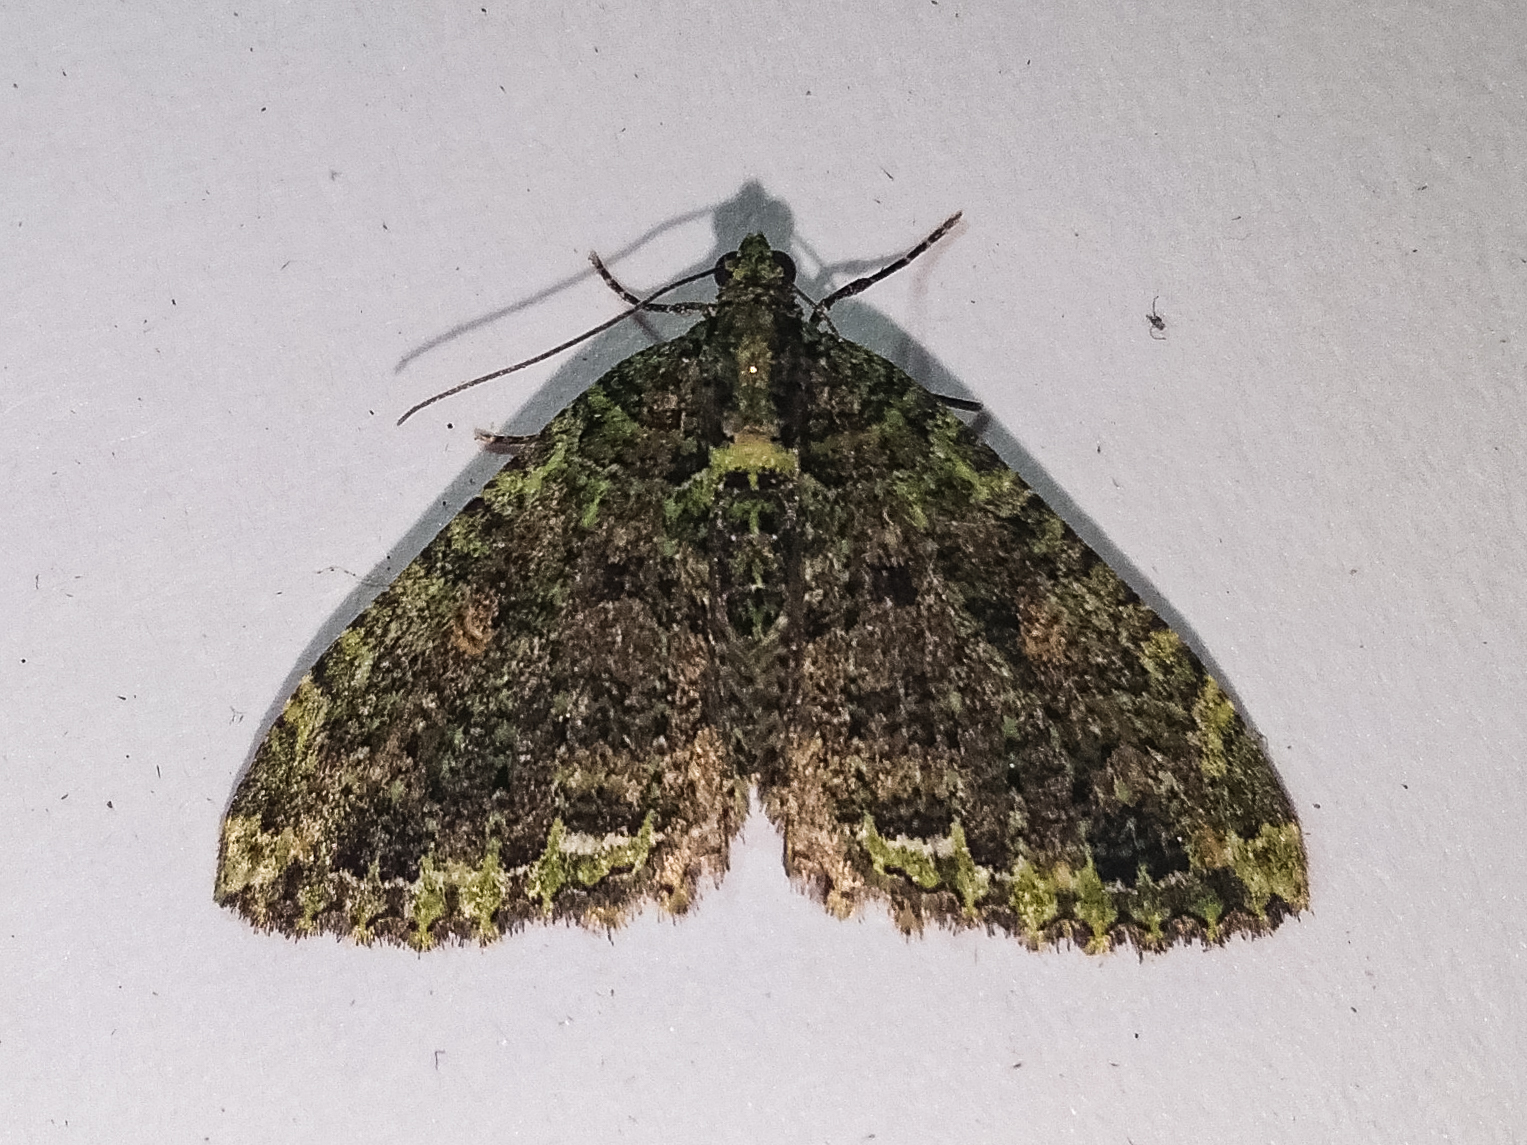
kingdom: Animalia
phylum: Arthropoda
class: Insecta
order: Lepidoptera
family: Geometridae
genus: Austrocidaria
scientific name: Austrocidaria similata
